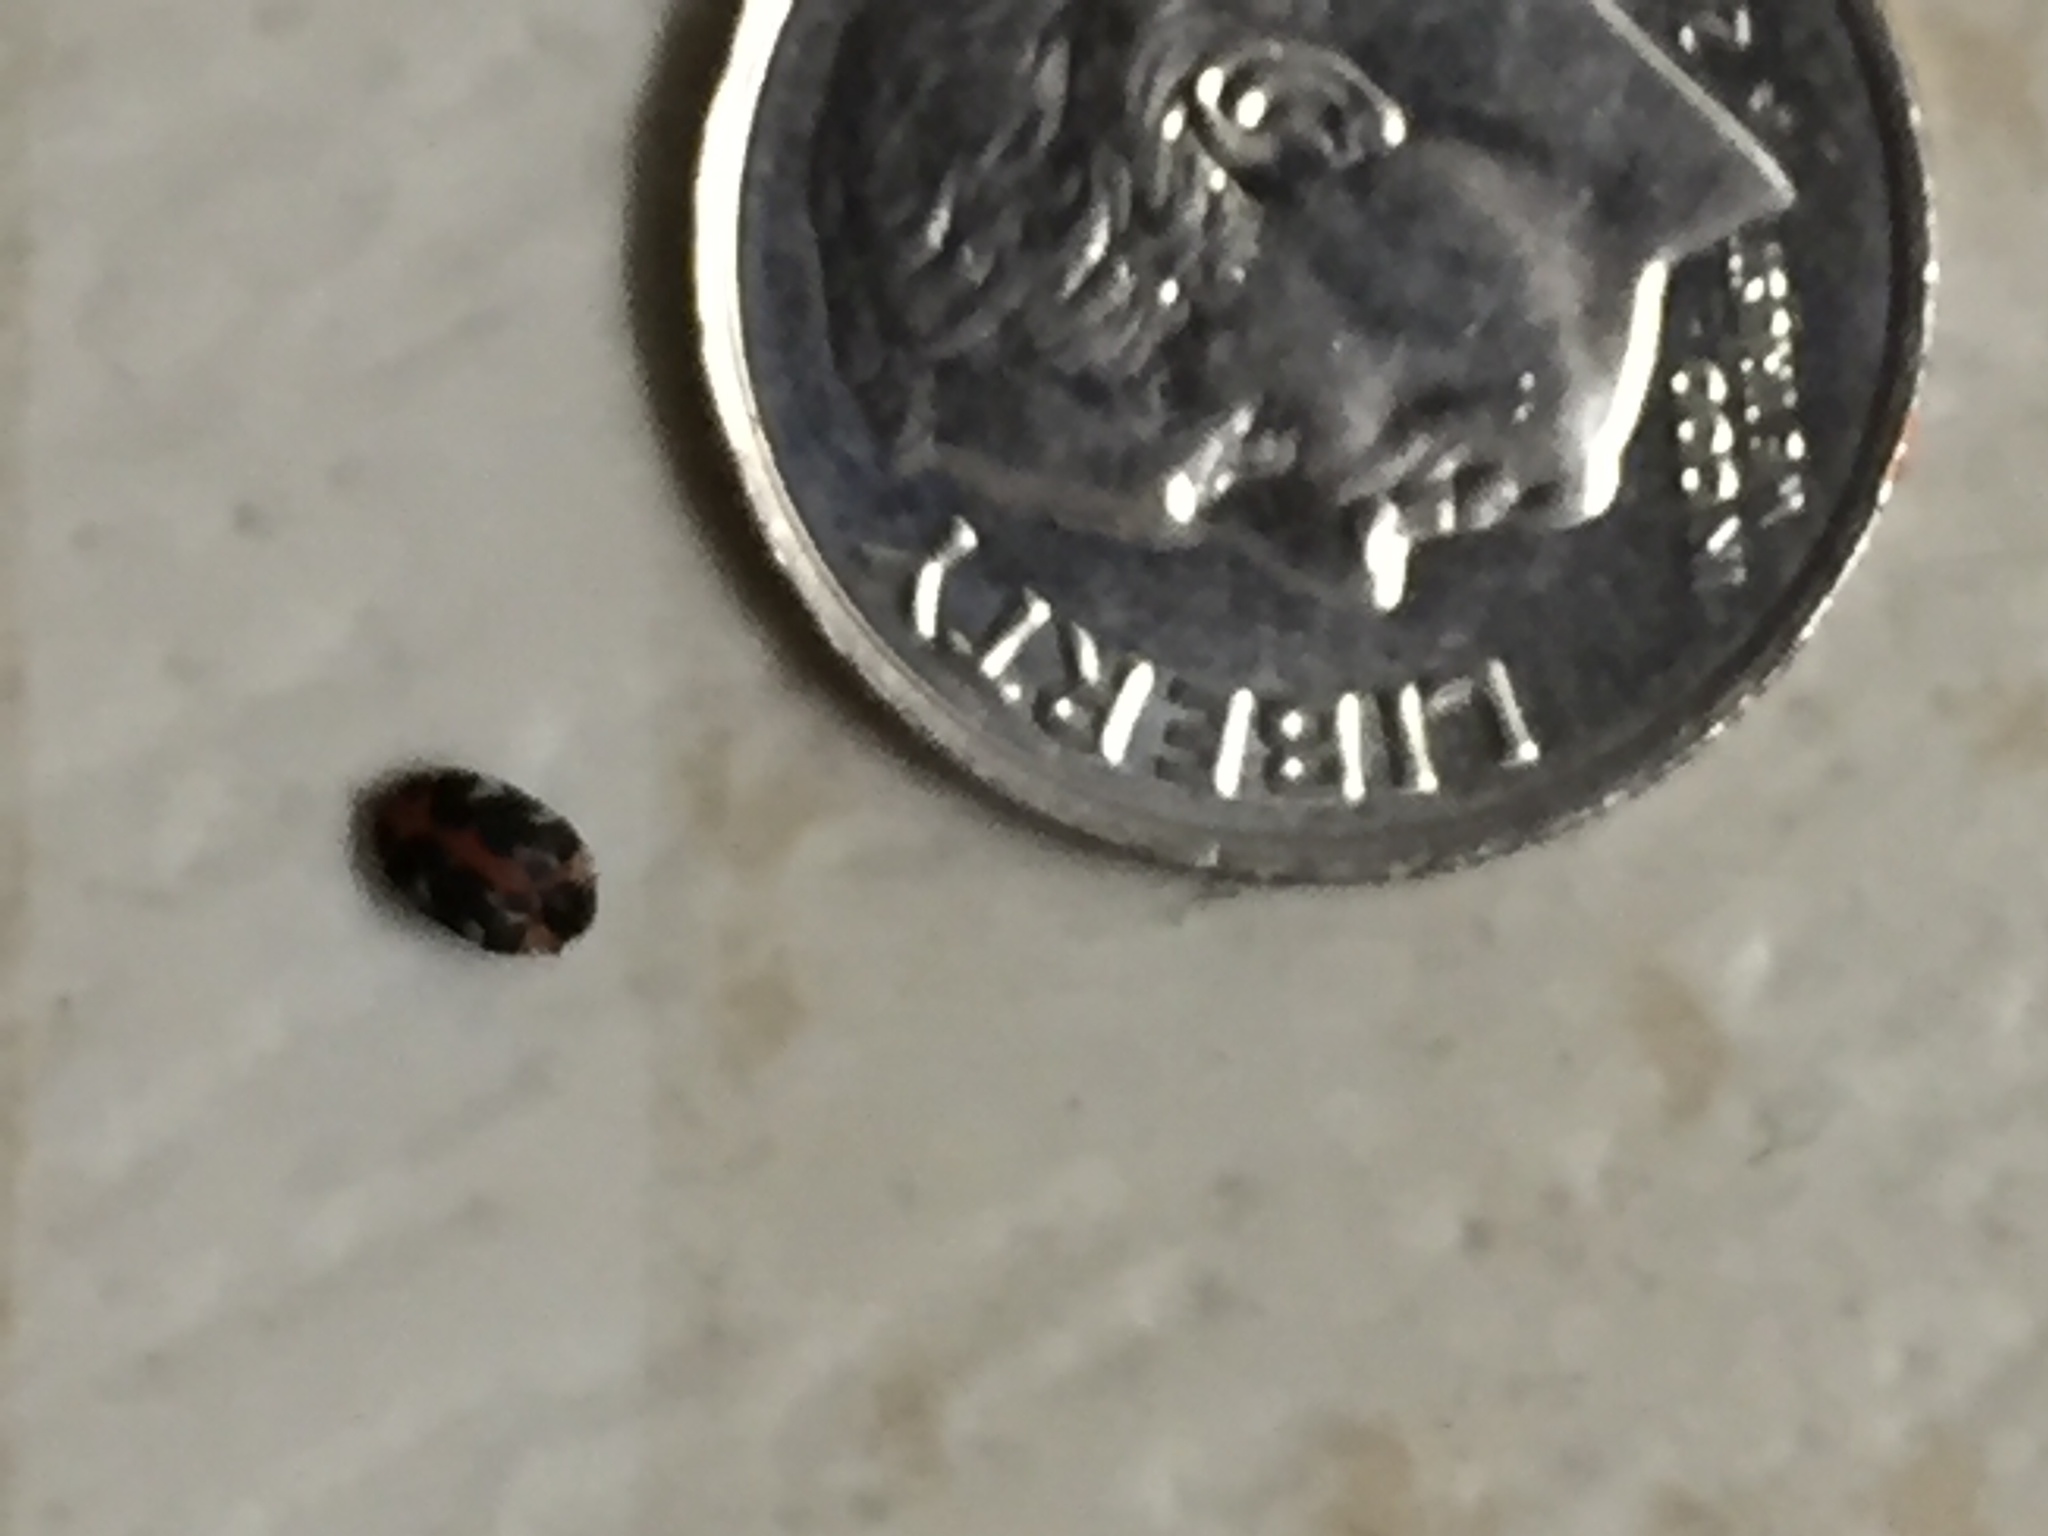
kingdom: Animalia
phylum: Arthropoda
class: Insecta
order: Coleoptera
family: Dermestidae
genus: Anthrenus
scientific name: Anthrenus scrophulariae
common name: Buffalo carpet beetle
